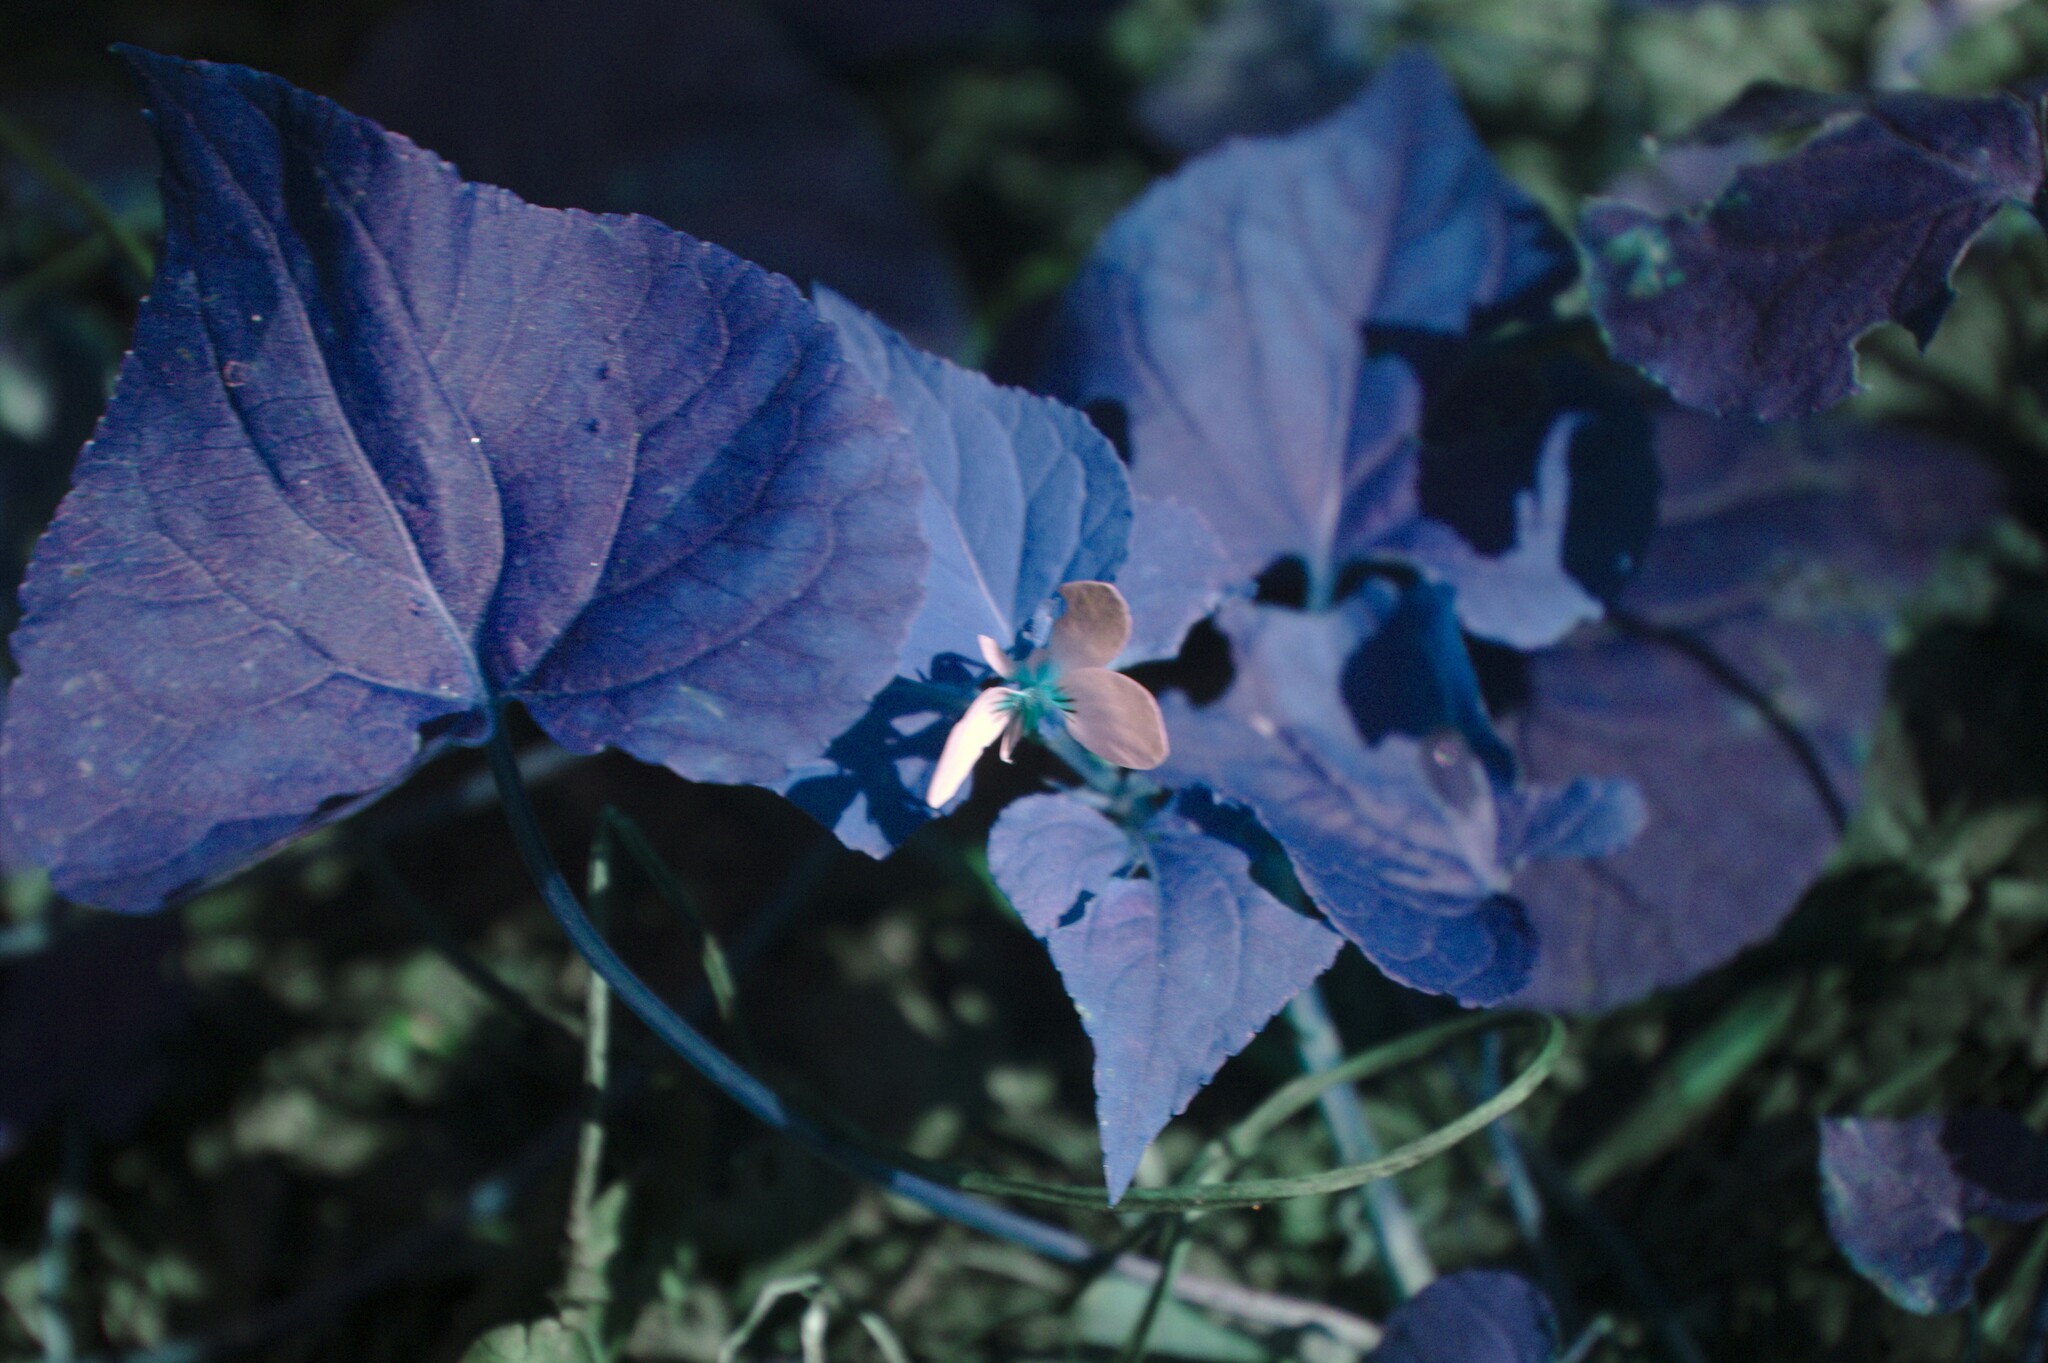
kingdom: Plantae
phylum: Tracheophyta
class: Magnoliopsida
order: Malpighiales
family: Violaceae
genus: Viola
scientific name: Viola canadensis
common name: Canada violet
